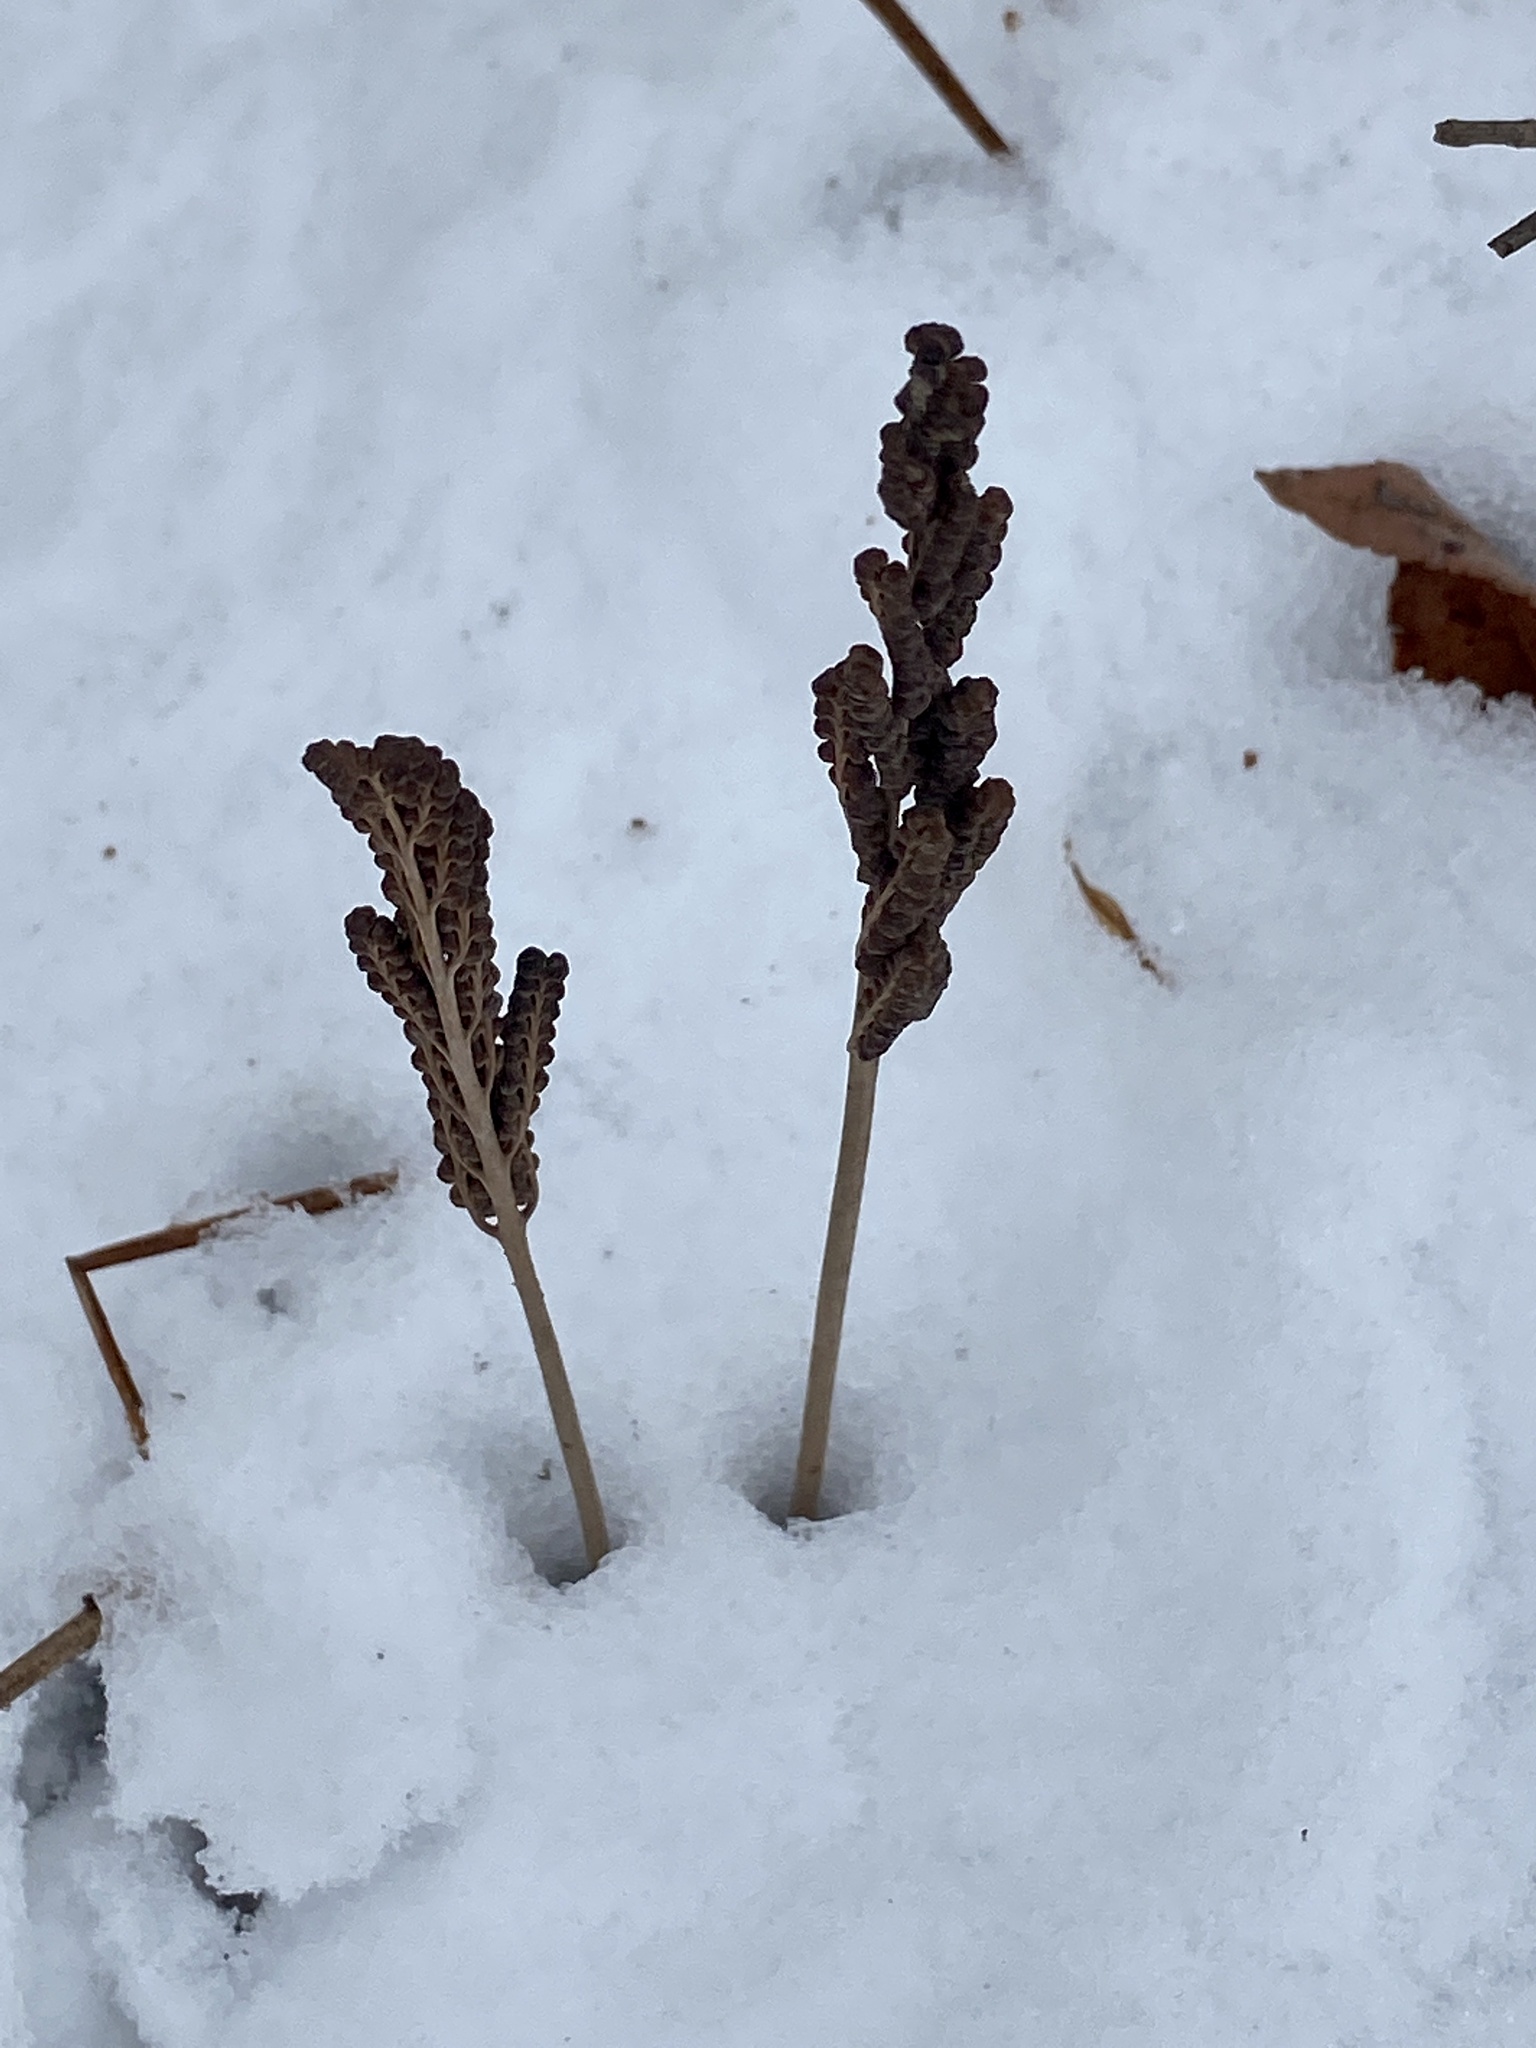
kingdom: Plantae
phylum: Tracheophyta
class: Polypodiopsida
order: Polypodiales
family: Onocleaceae
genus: Onoclea
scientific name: Onoclea sensibilis
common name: Sensitive fern
